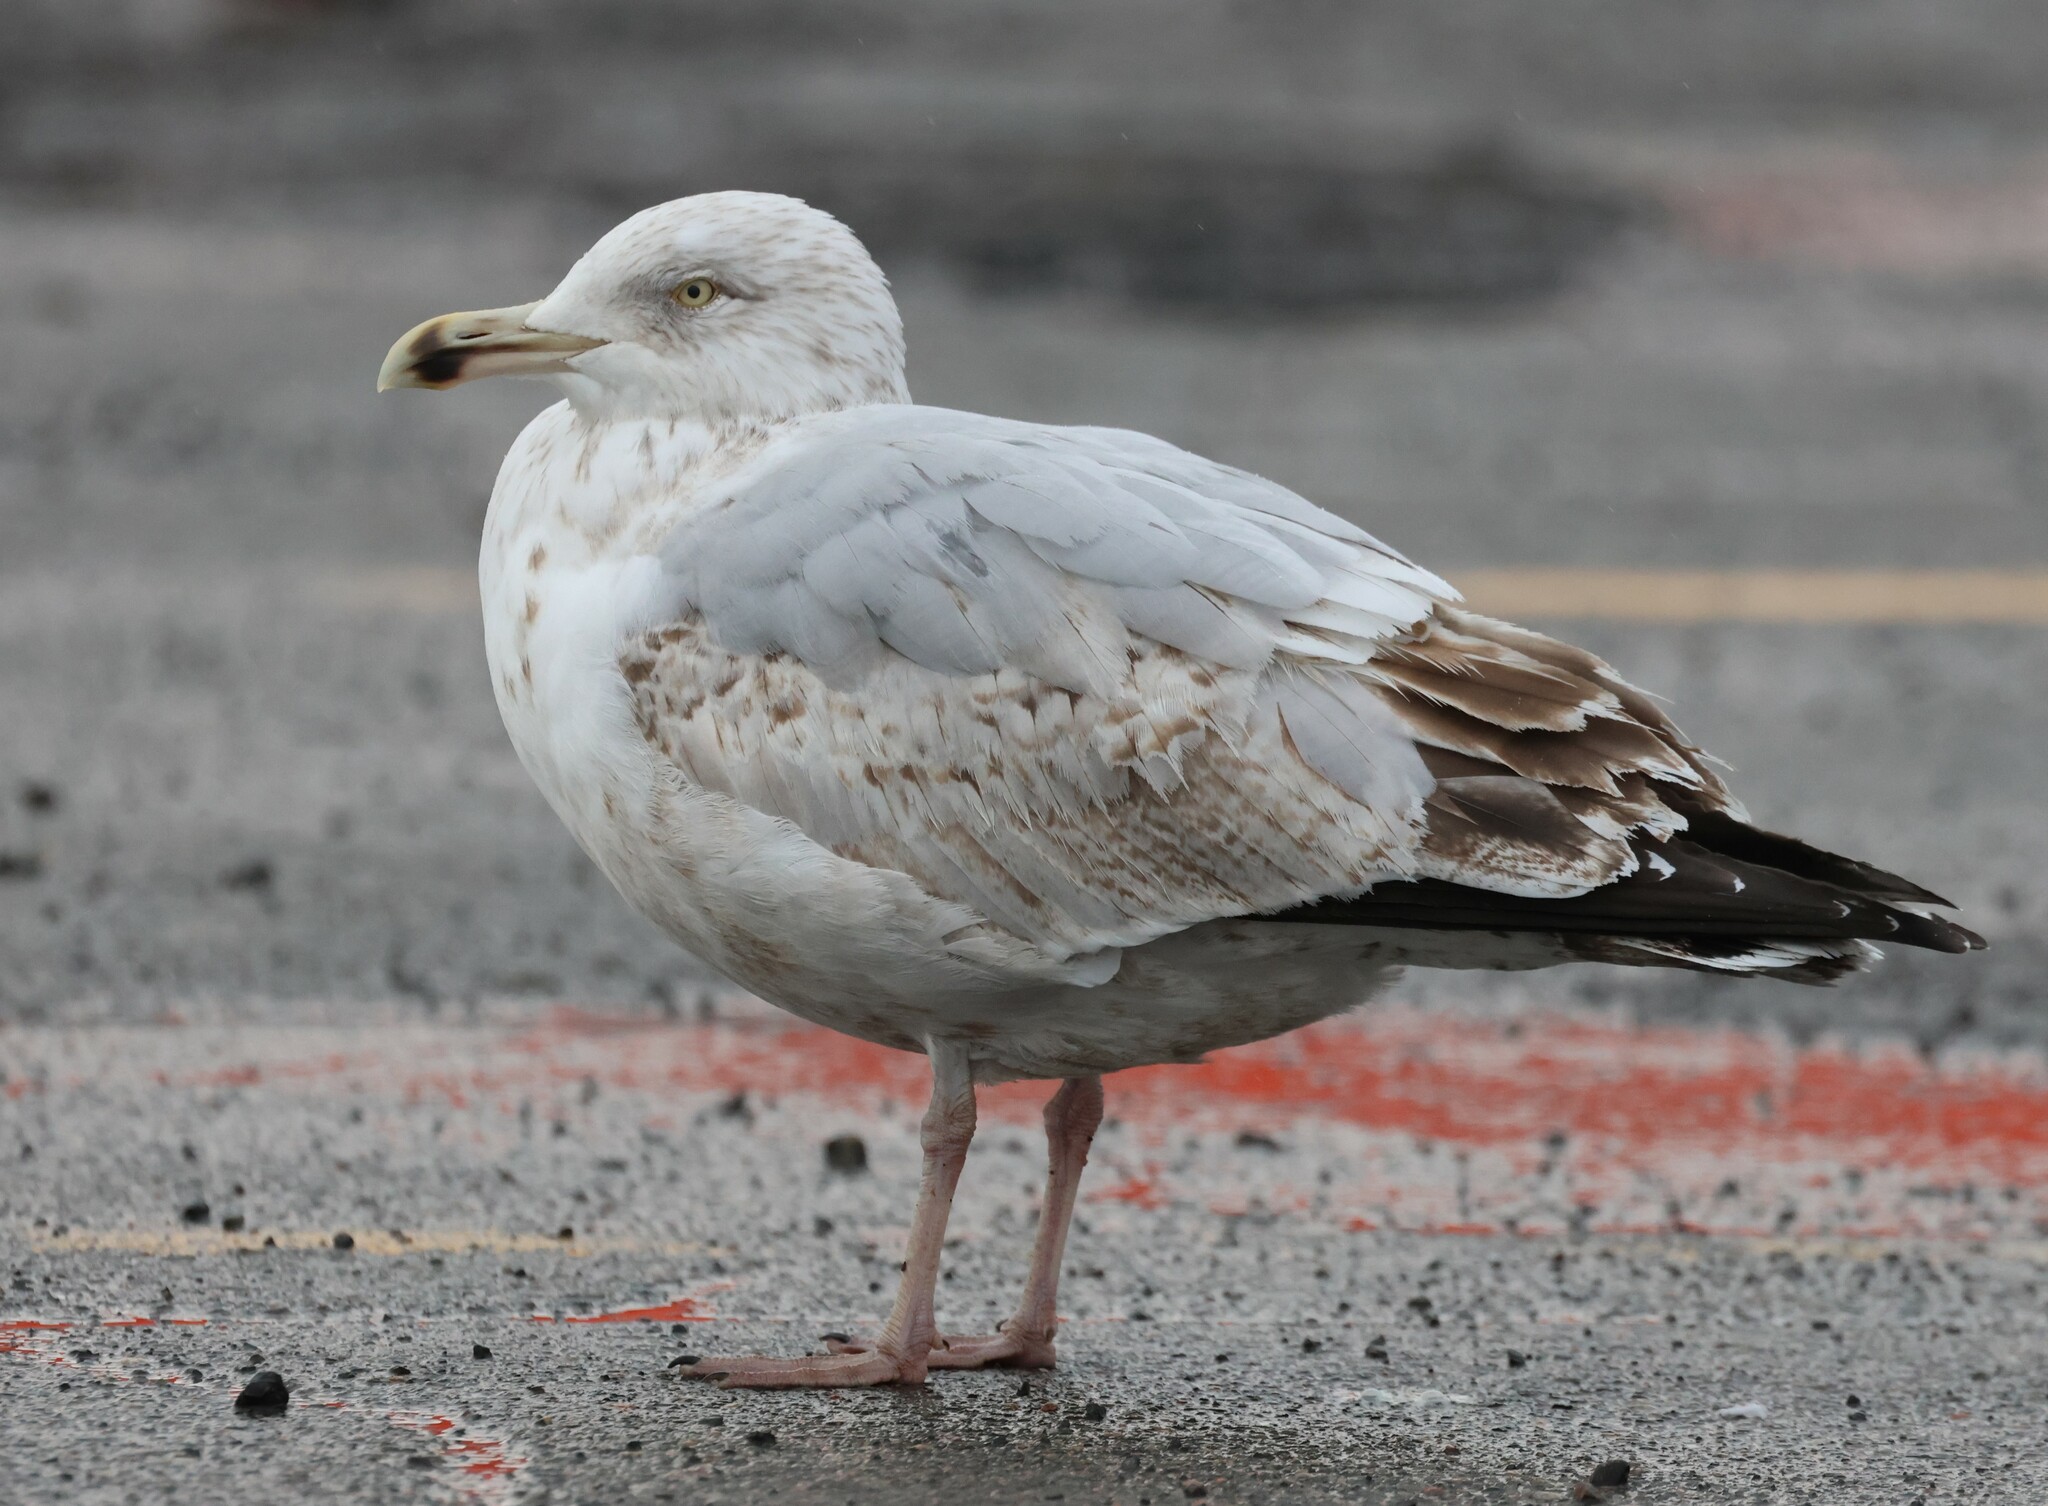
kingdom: Animalia
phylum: Chordata
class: Aves
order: Charadriiformes
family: Laridae
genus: Larus
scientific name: Larus argentatus
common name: Herring gull
